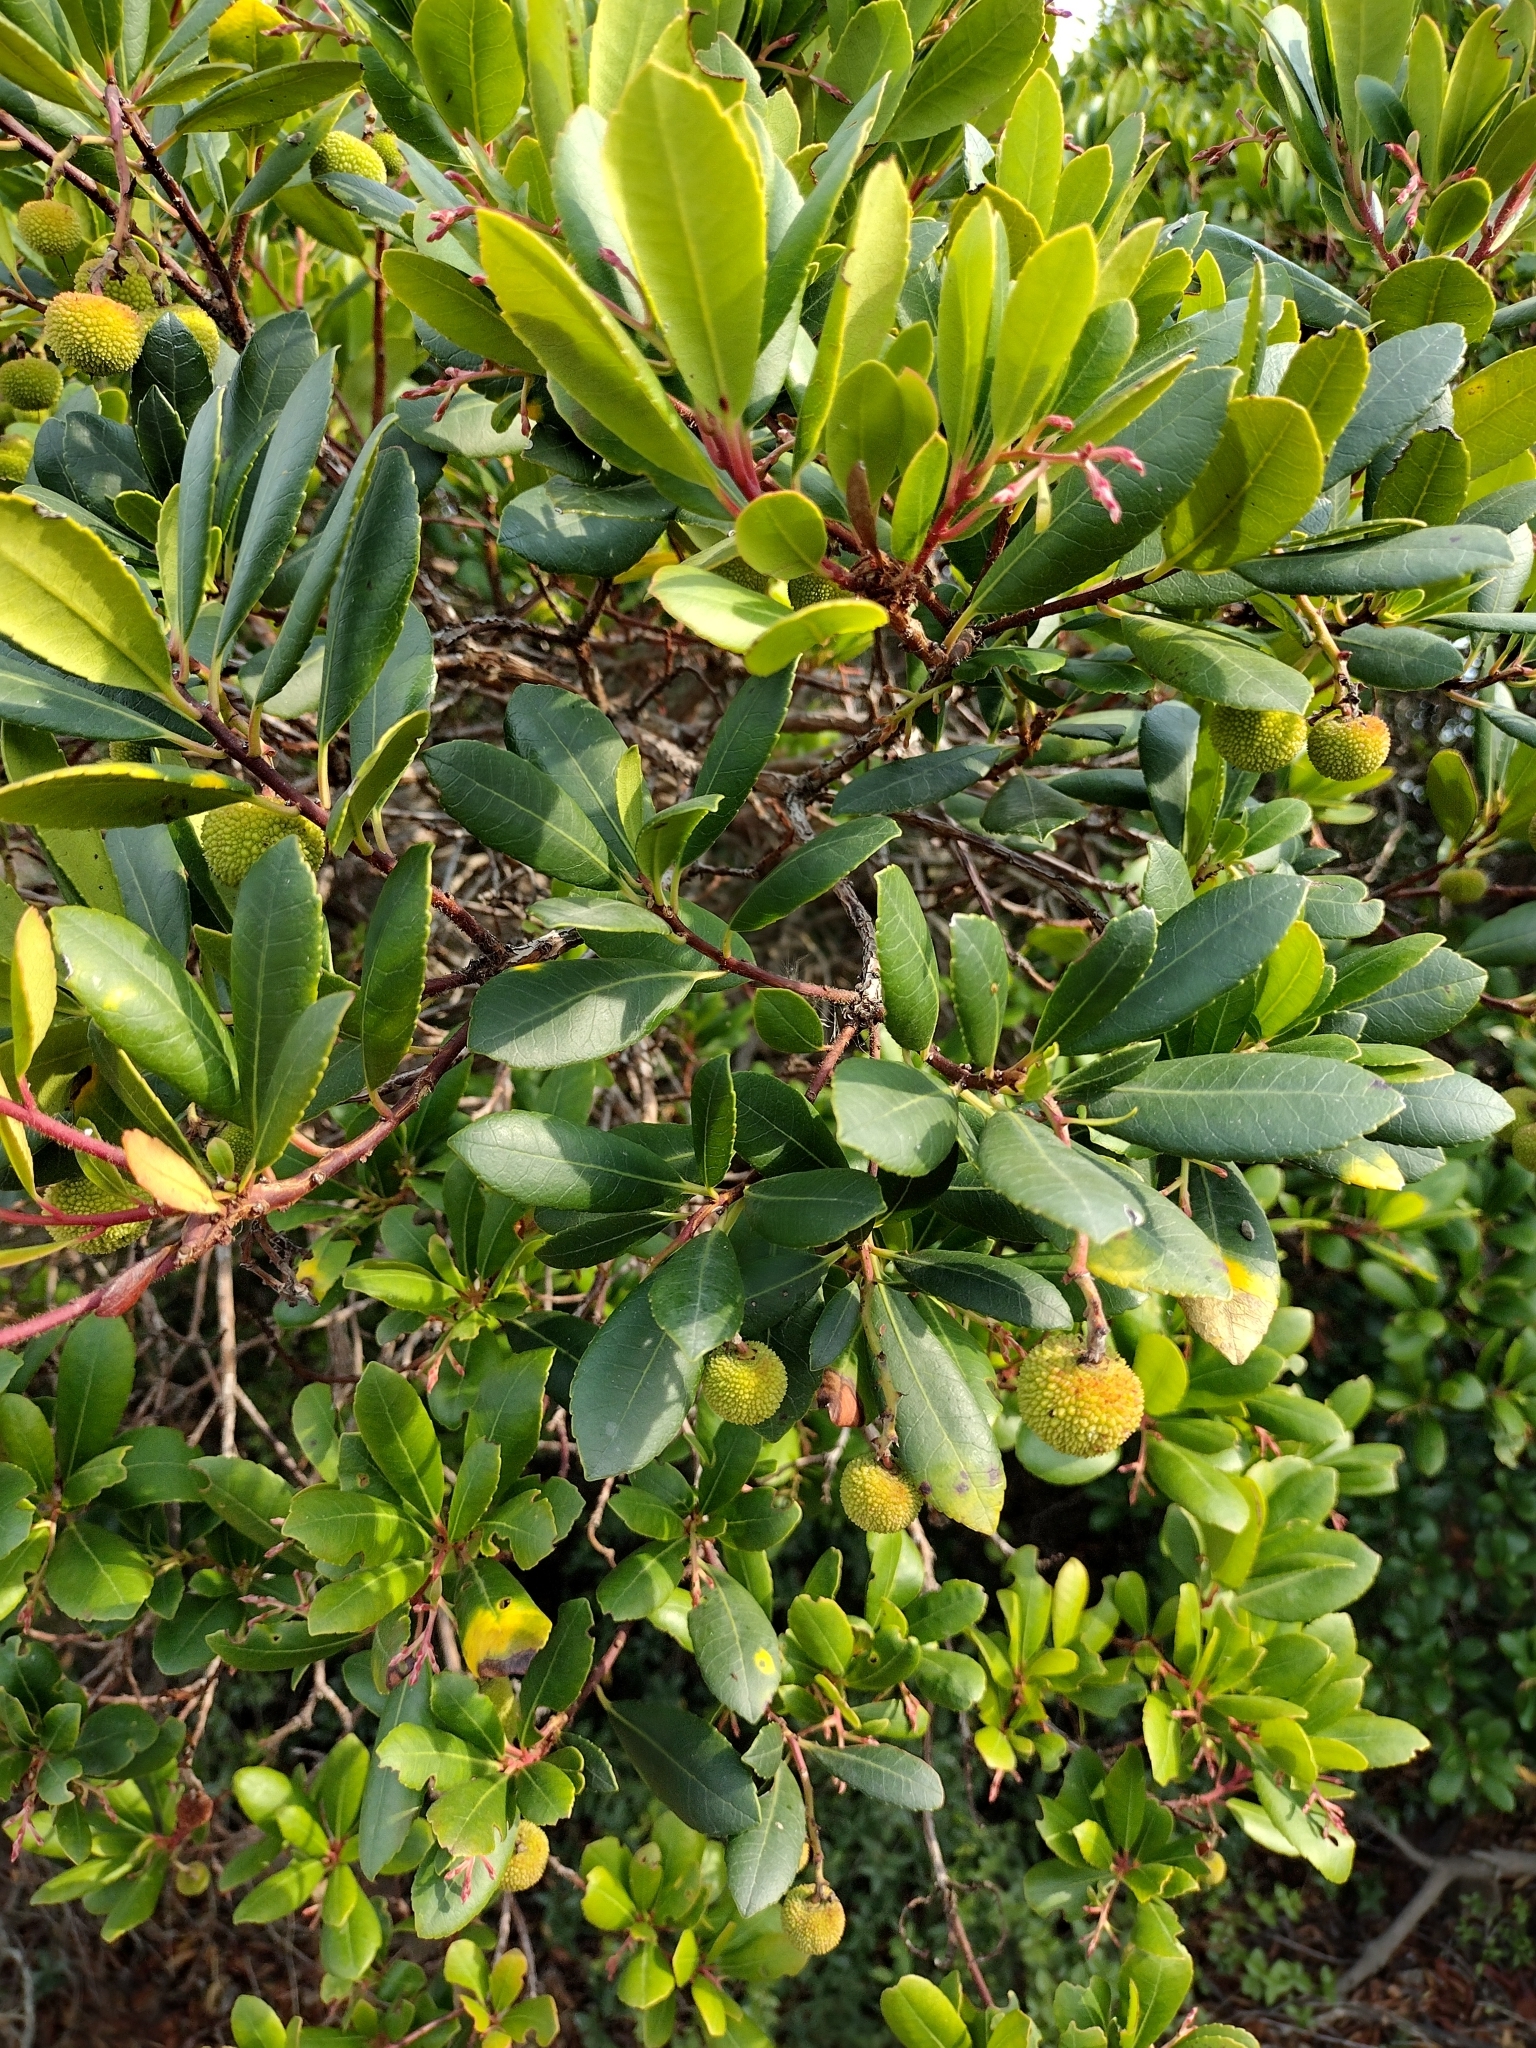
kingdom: Plantae
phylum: Tracheophyta
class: Magnoliopsida
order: Ericales
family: Ericaceae
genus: Arbutus
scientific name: Arbutus unedo
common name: Strawberry-tree
